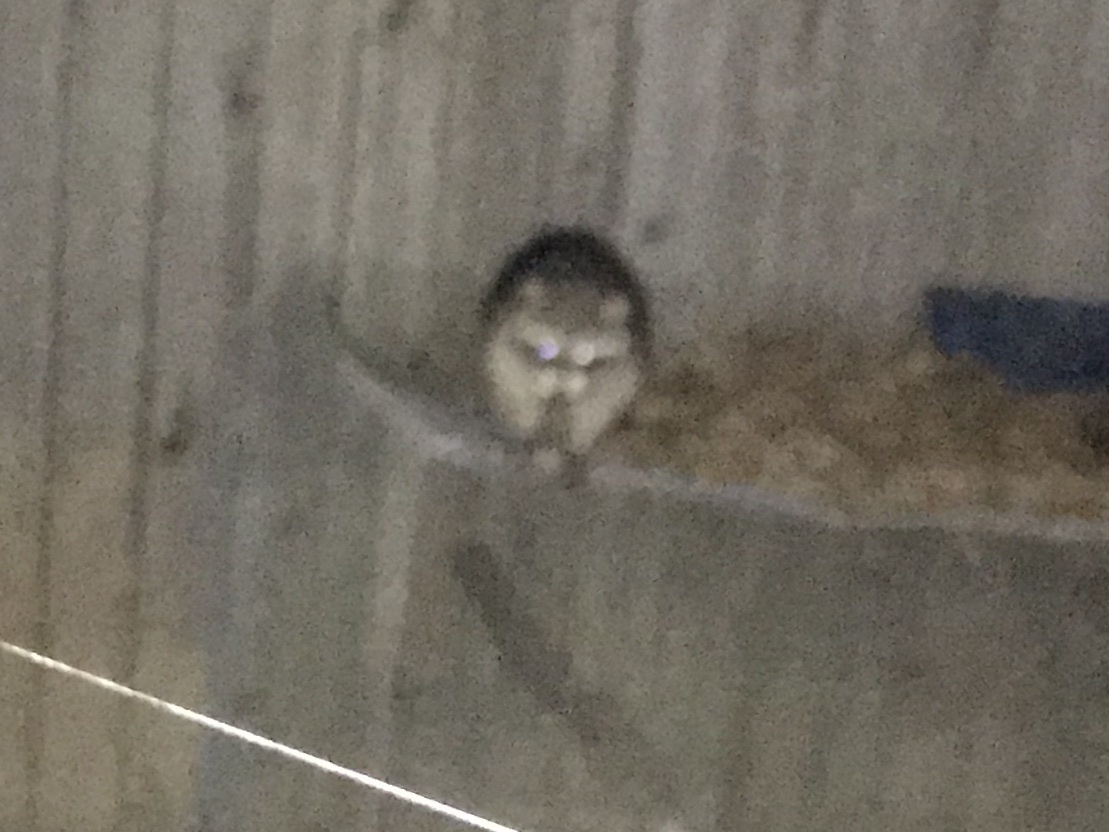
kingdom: Animalia
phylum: Chordata
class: Mammalia
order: Carnivora
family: Procyonidae
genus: Procyon
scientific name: Procyon lotor
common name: Raccoon
